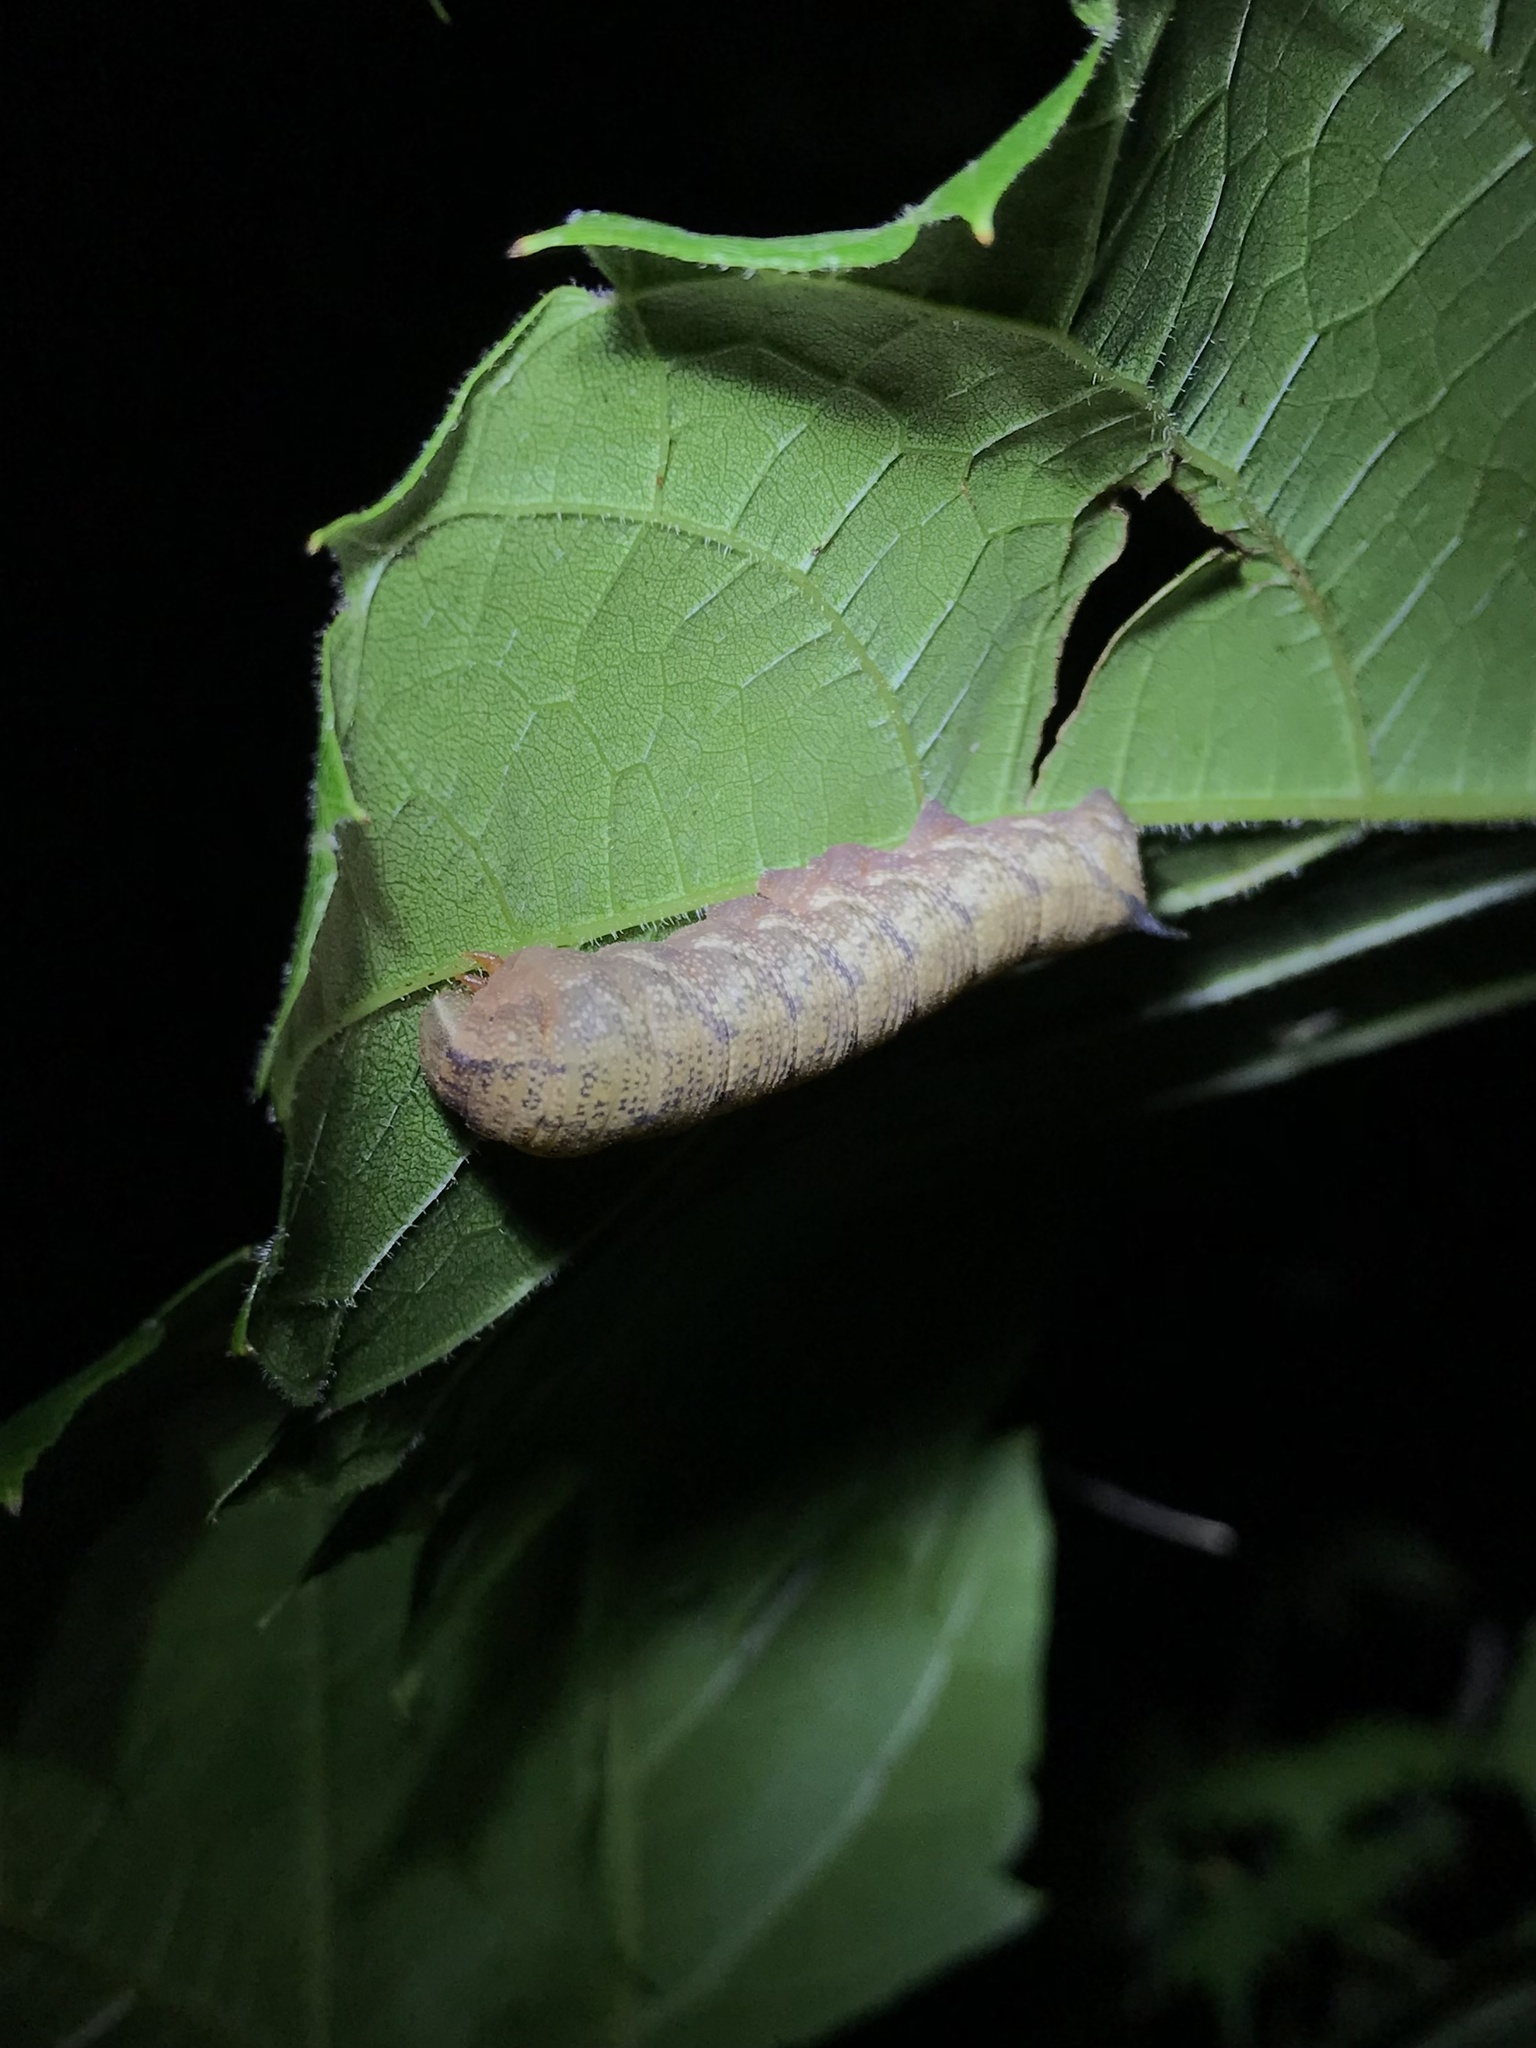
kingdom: Animalia
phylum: Arthropoda
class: Insecta
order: Lepidoptera
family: Sphingidae
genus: Amphion
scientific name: Amphion floridensis
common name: Nessus sphinx
